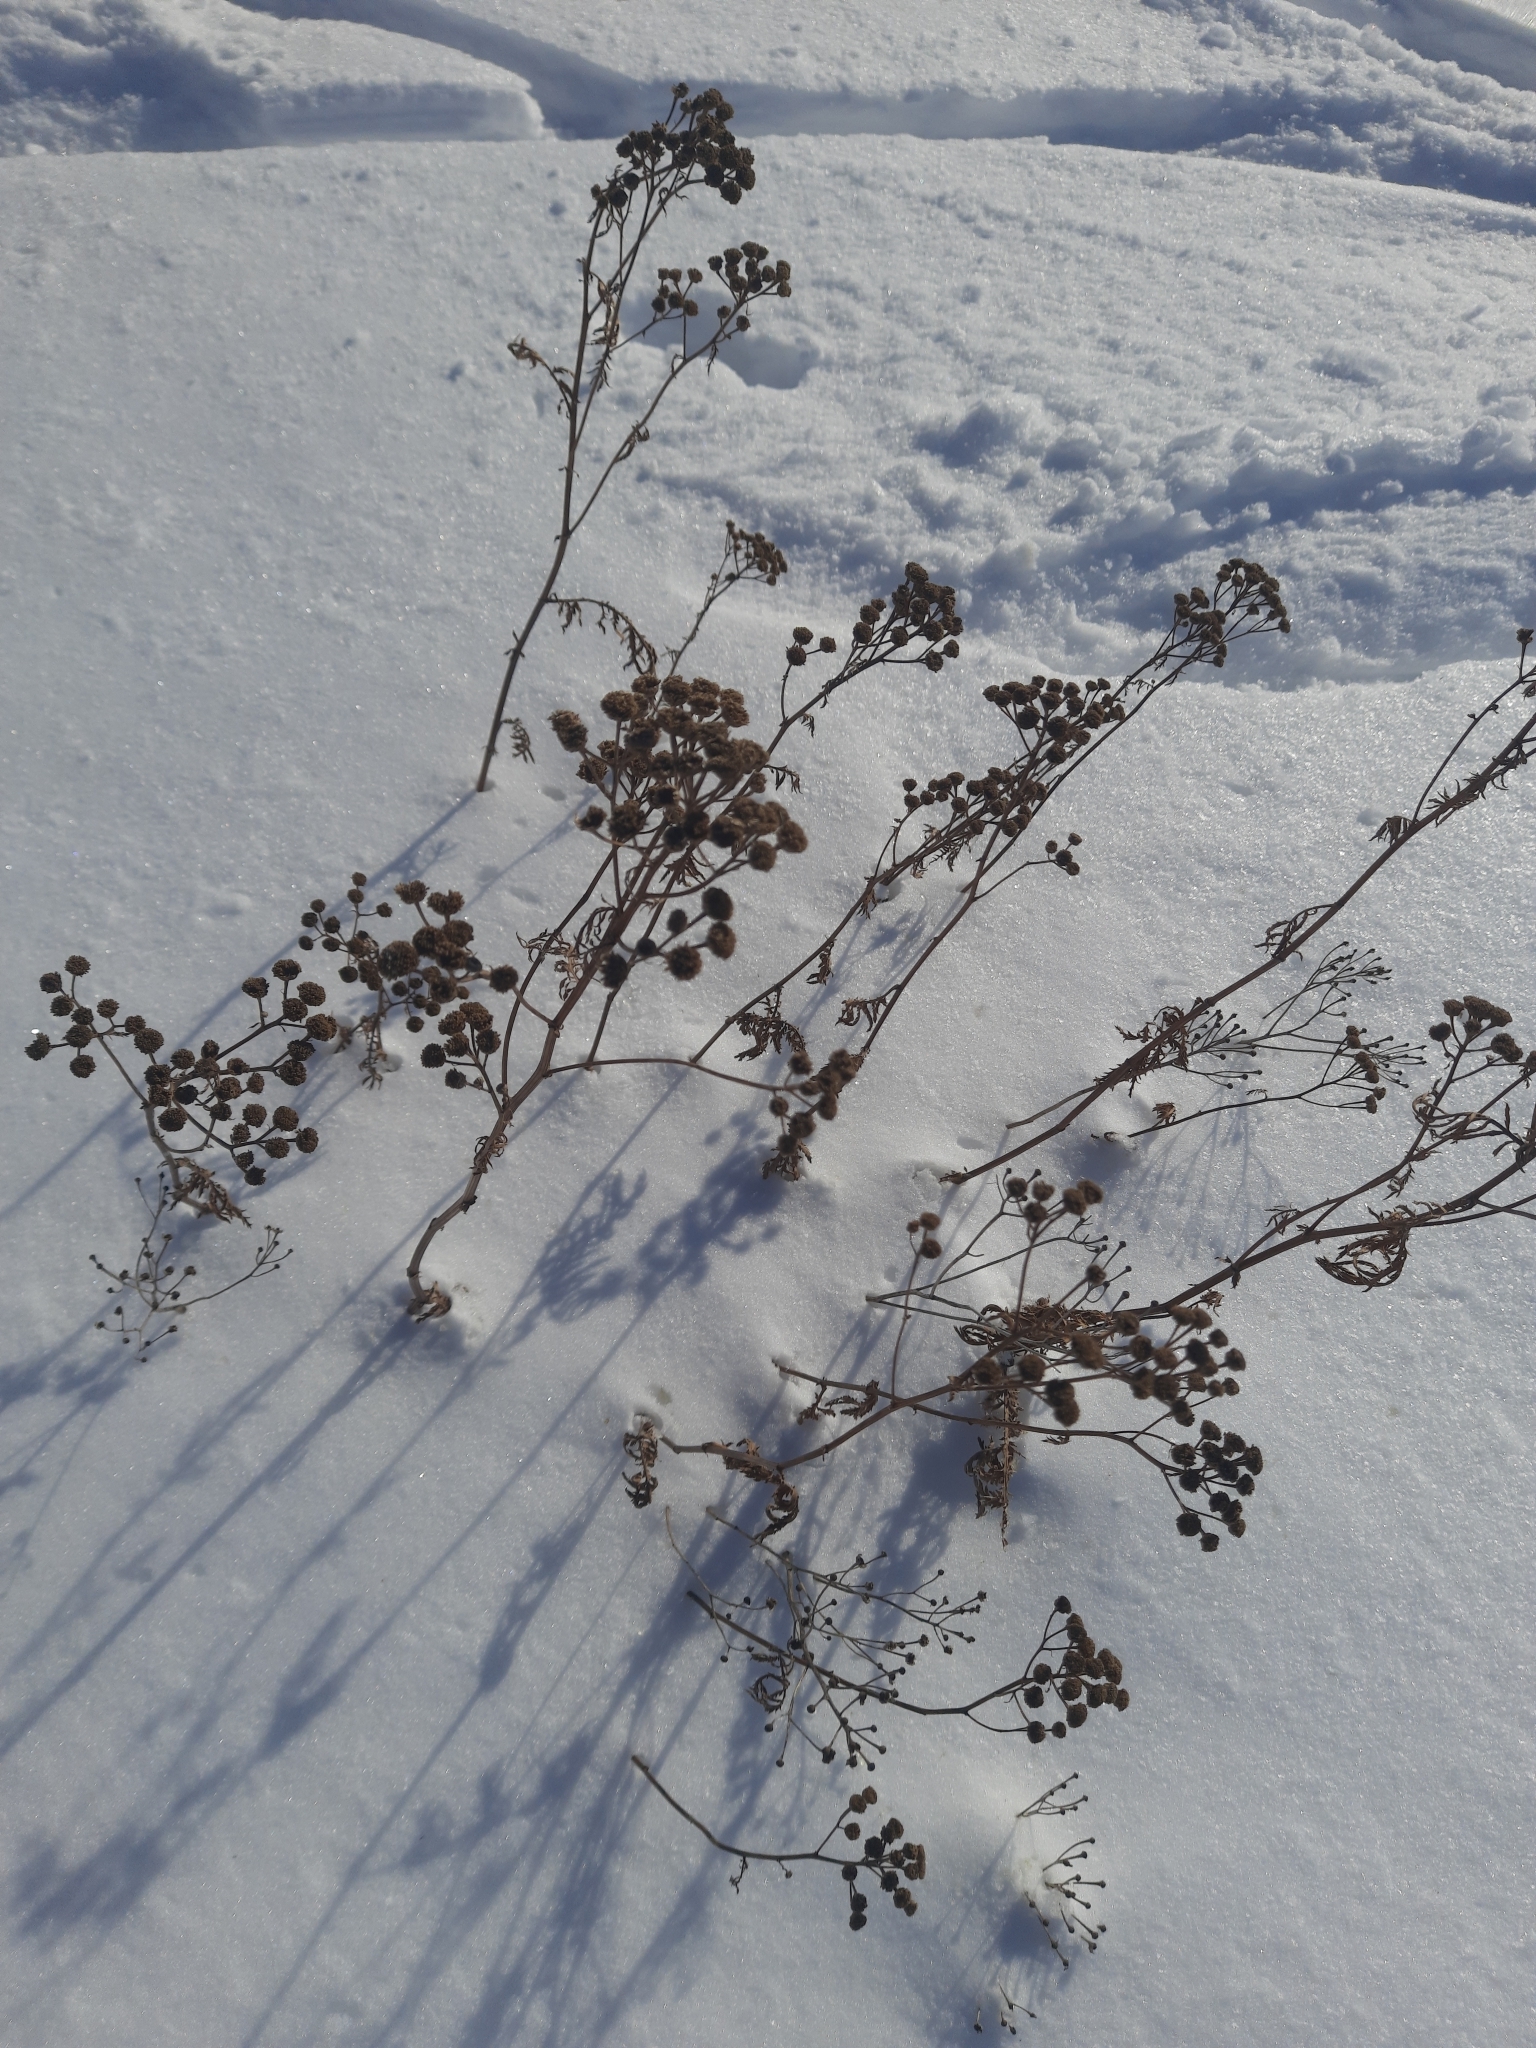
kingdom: Plantae
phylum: Tracheophyta
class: Magnoliopsida
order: Asterales
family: Asteraceae
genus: Tanacetum
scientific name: Tanacetum vulgare
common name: Common tansy
